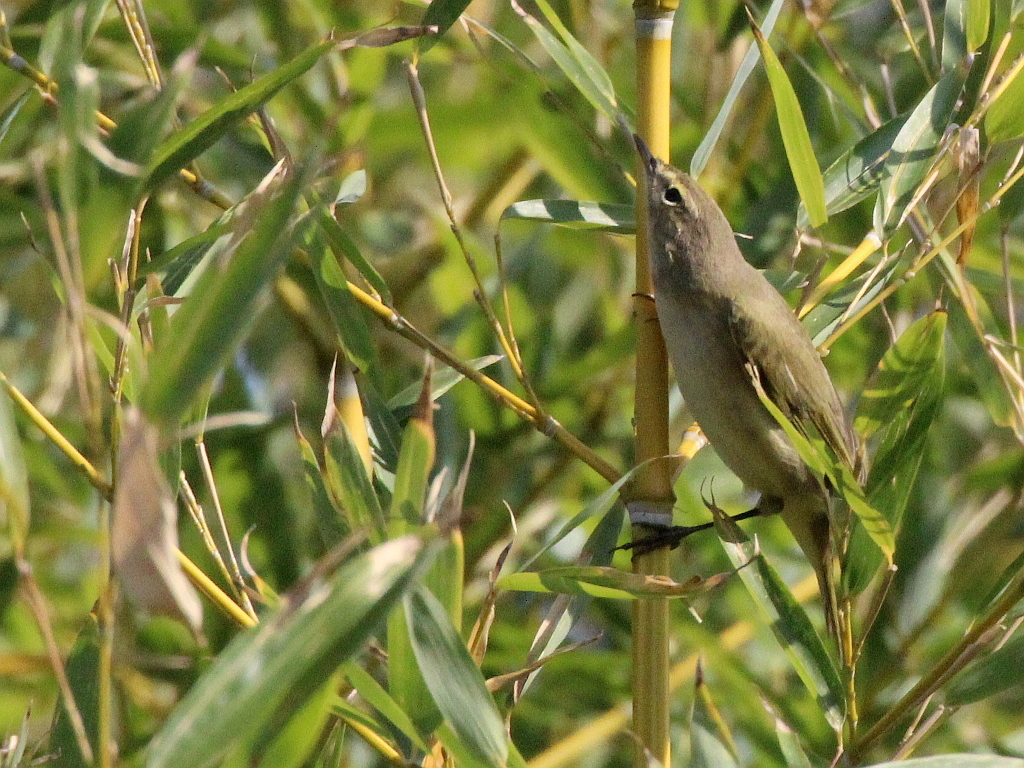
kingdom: Animalia
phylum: Chordata
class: Aves
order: Passeriformes
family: Phylloscopidae
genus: Phylloscopus
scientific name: Phylloscopus collybita
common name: Common chiffchaff
